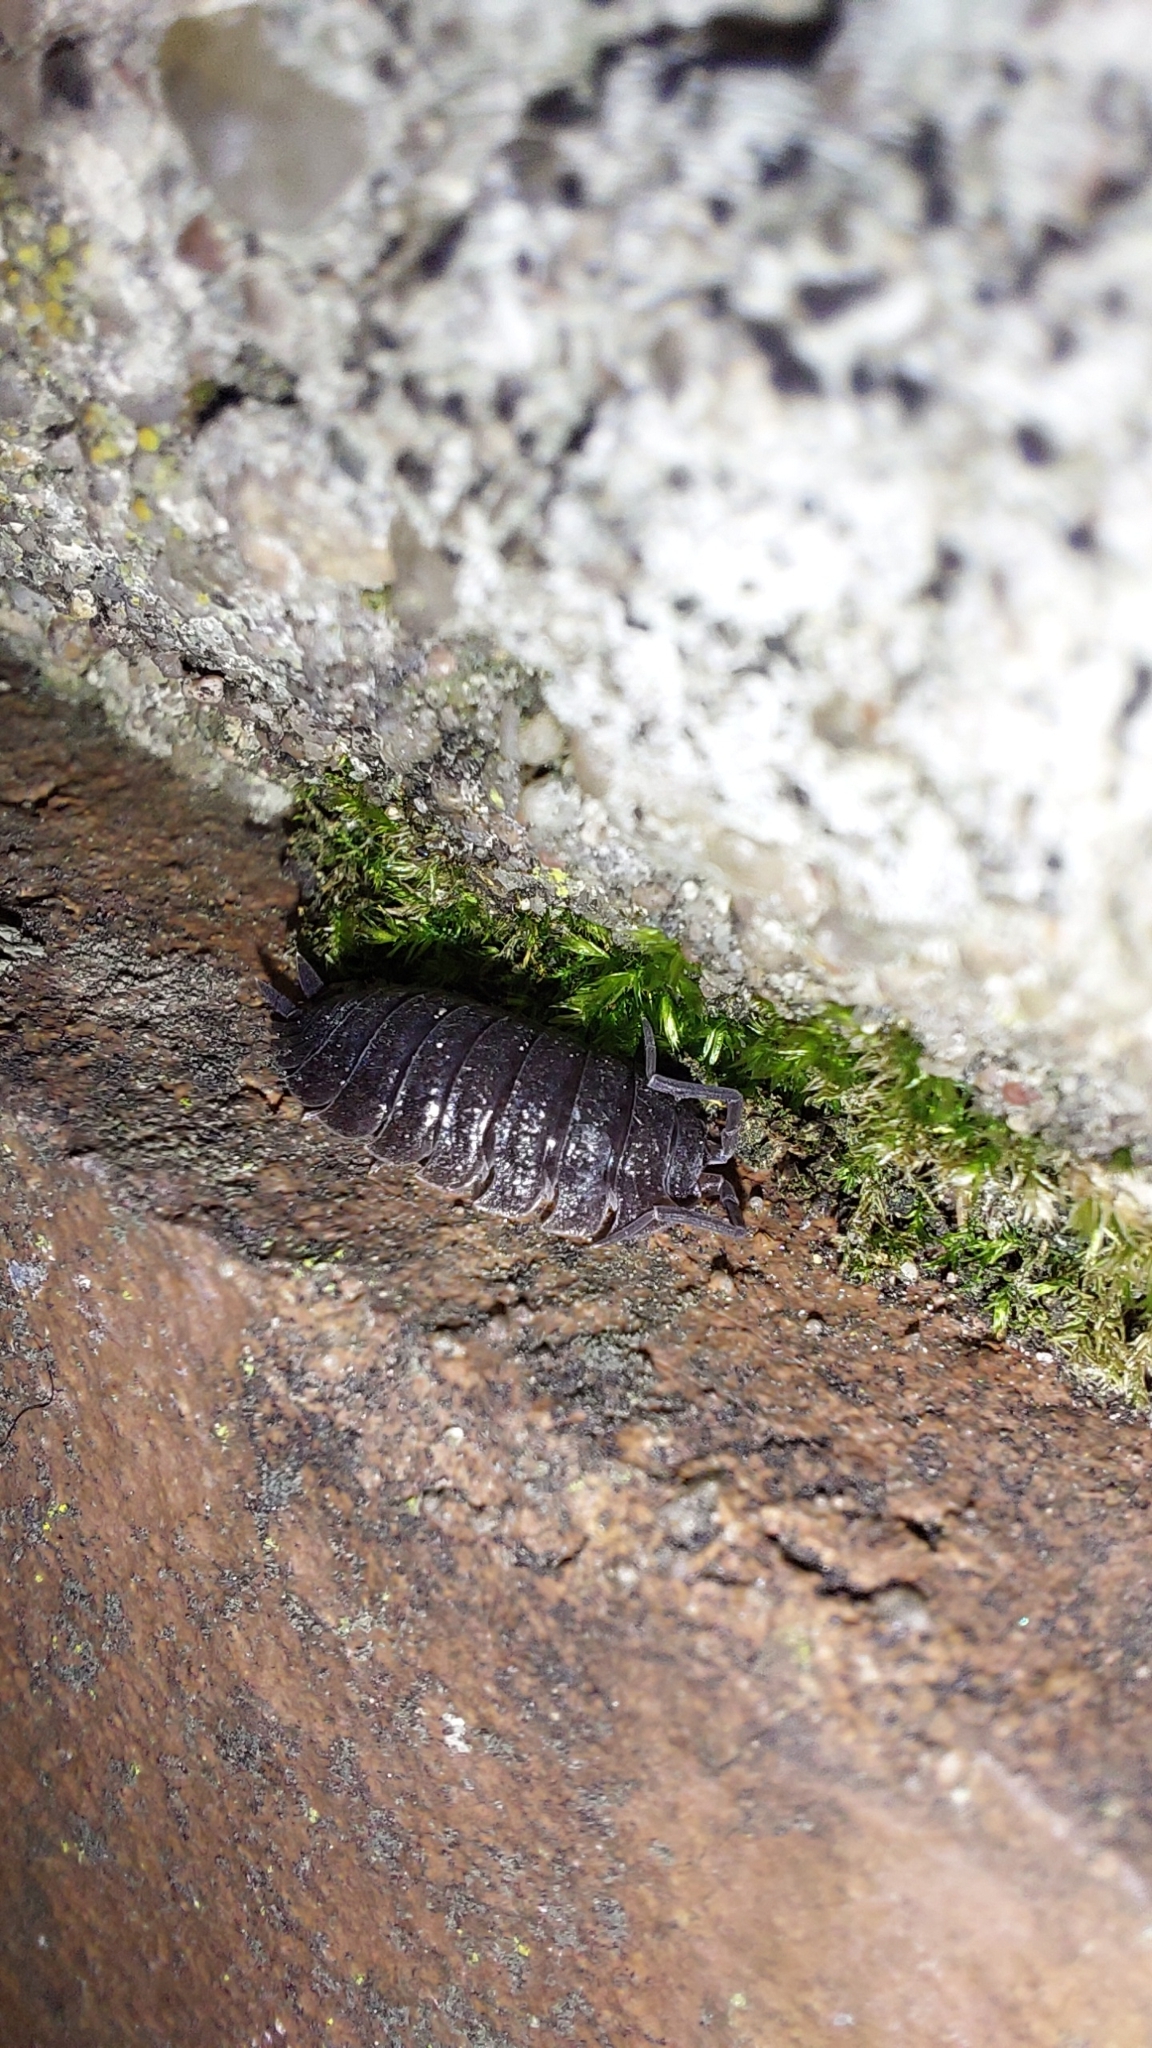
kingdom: Animalia
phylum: Arthropoda
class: Malacostraca
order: Isopoda
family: Porcellionidae
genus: Porcellio
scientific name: Porcellio scaber
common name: Common rough woodlouse
